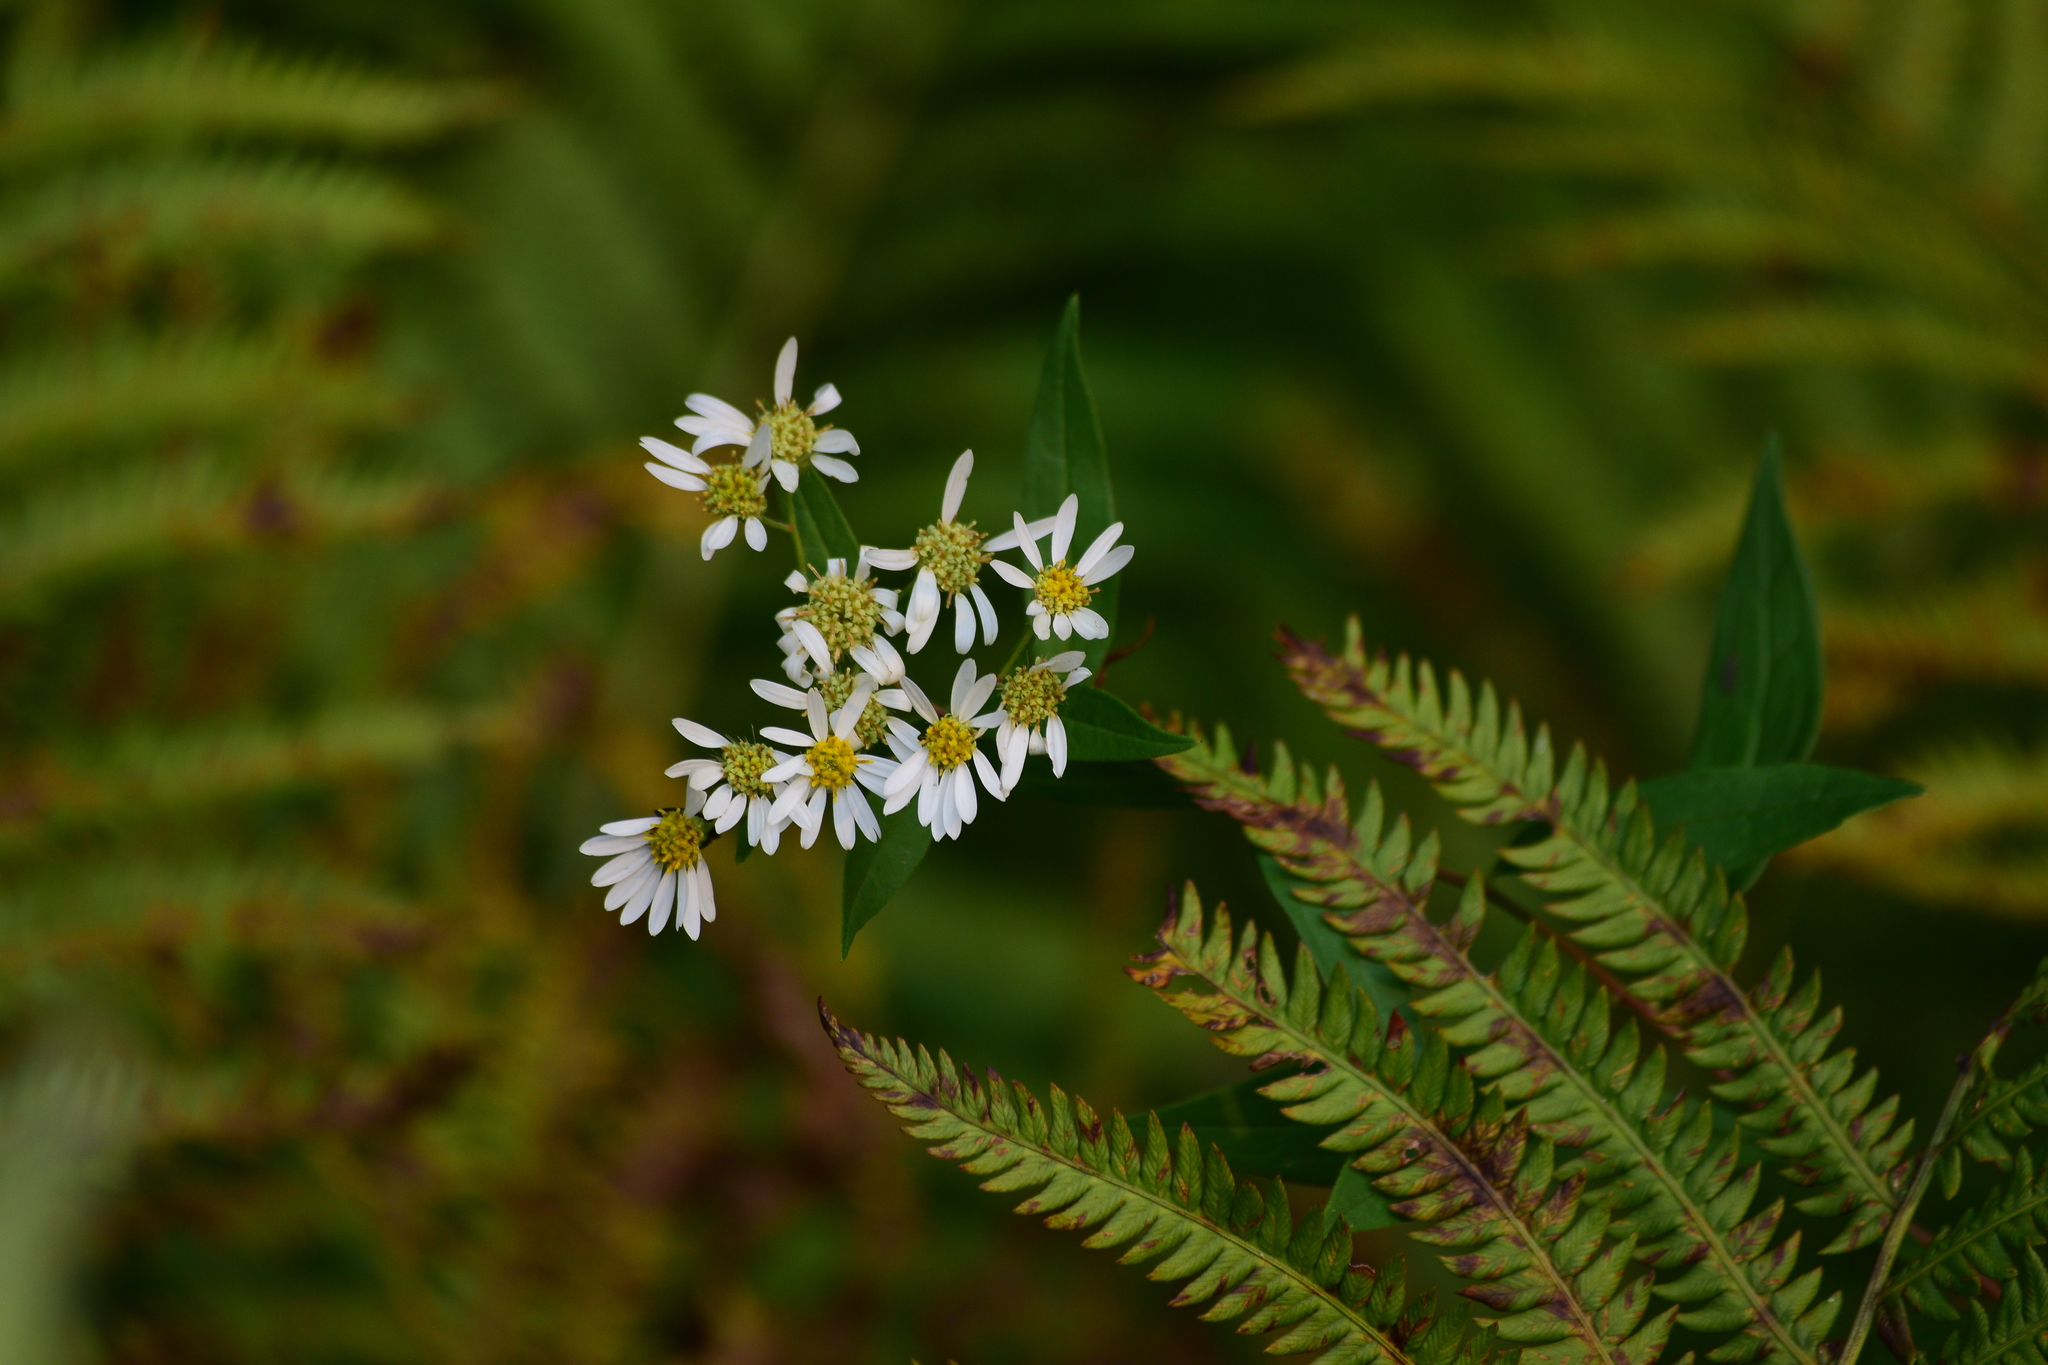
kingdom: Plantae
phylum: Tracheophyta
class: Magnoliopsida
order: Asterales
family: Asteraceae
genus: Doellingeria
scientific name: Doellingeria umbellata
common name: Flat-top white aster
